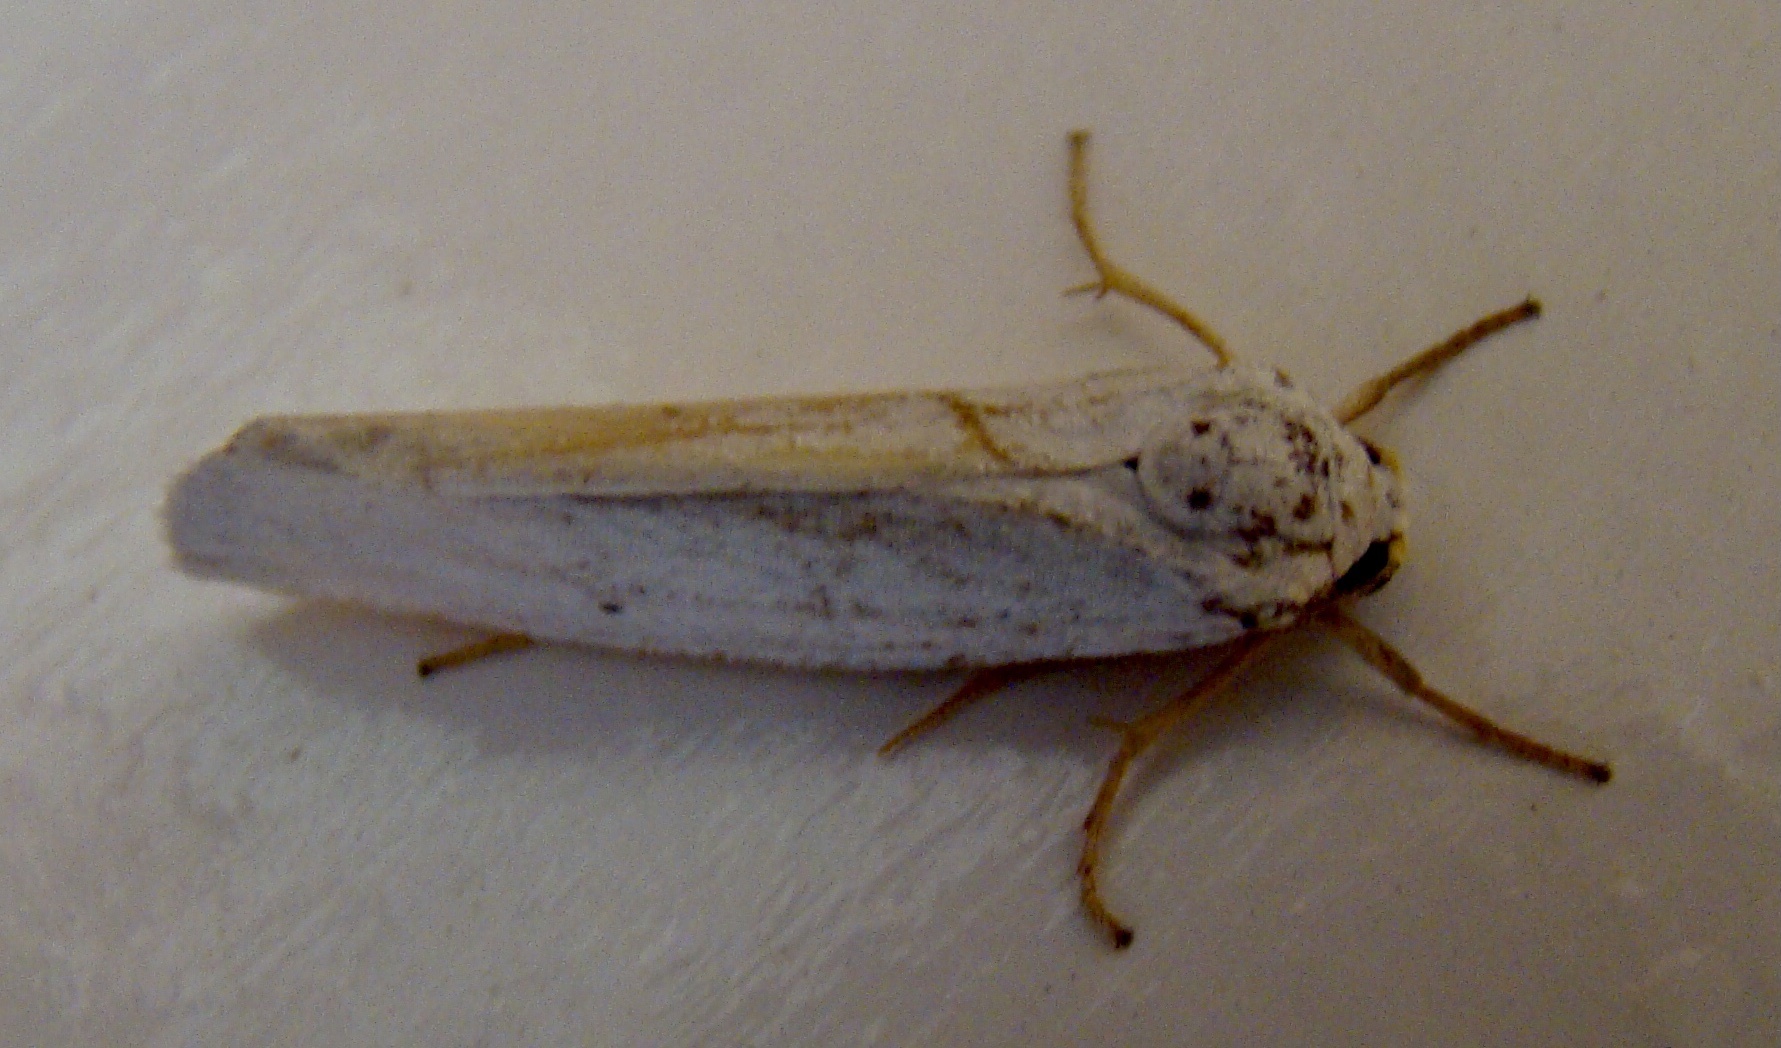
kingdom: Animalia
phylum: Arthropoda
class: Insecta
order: Lepidoptera
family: Erebidae
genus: Ilemodes
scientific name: Ilemodes astriga
